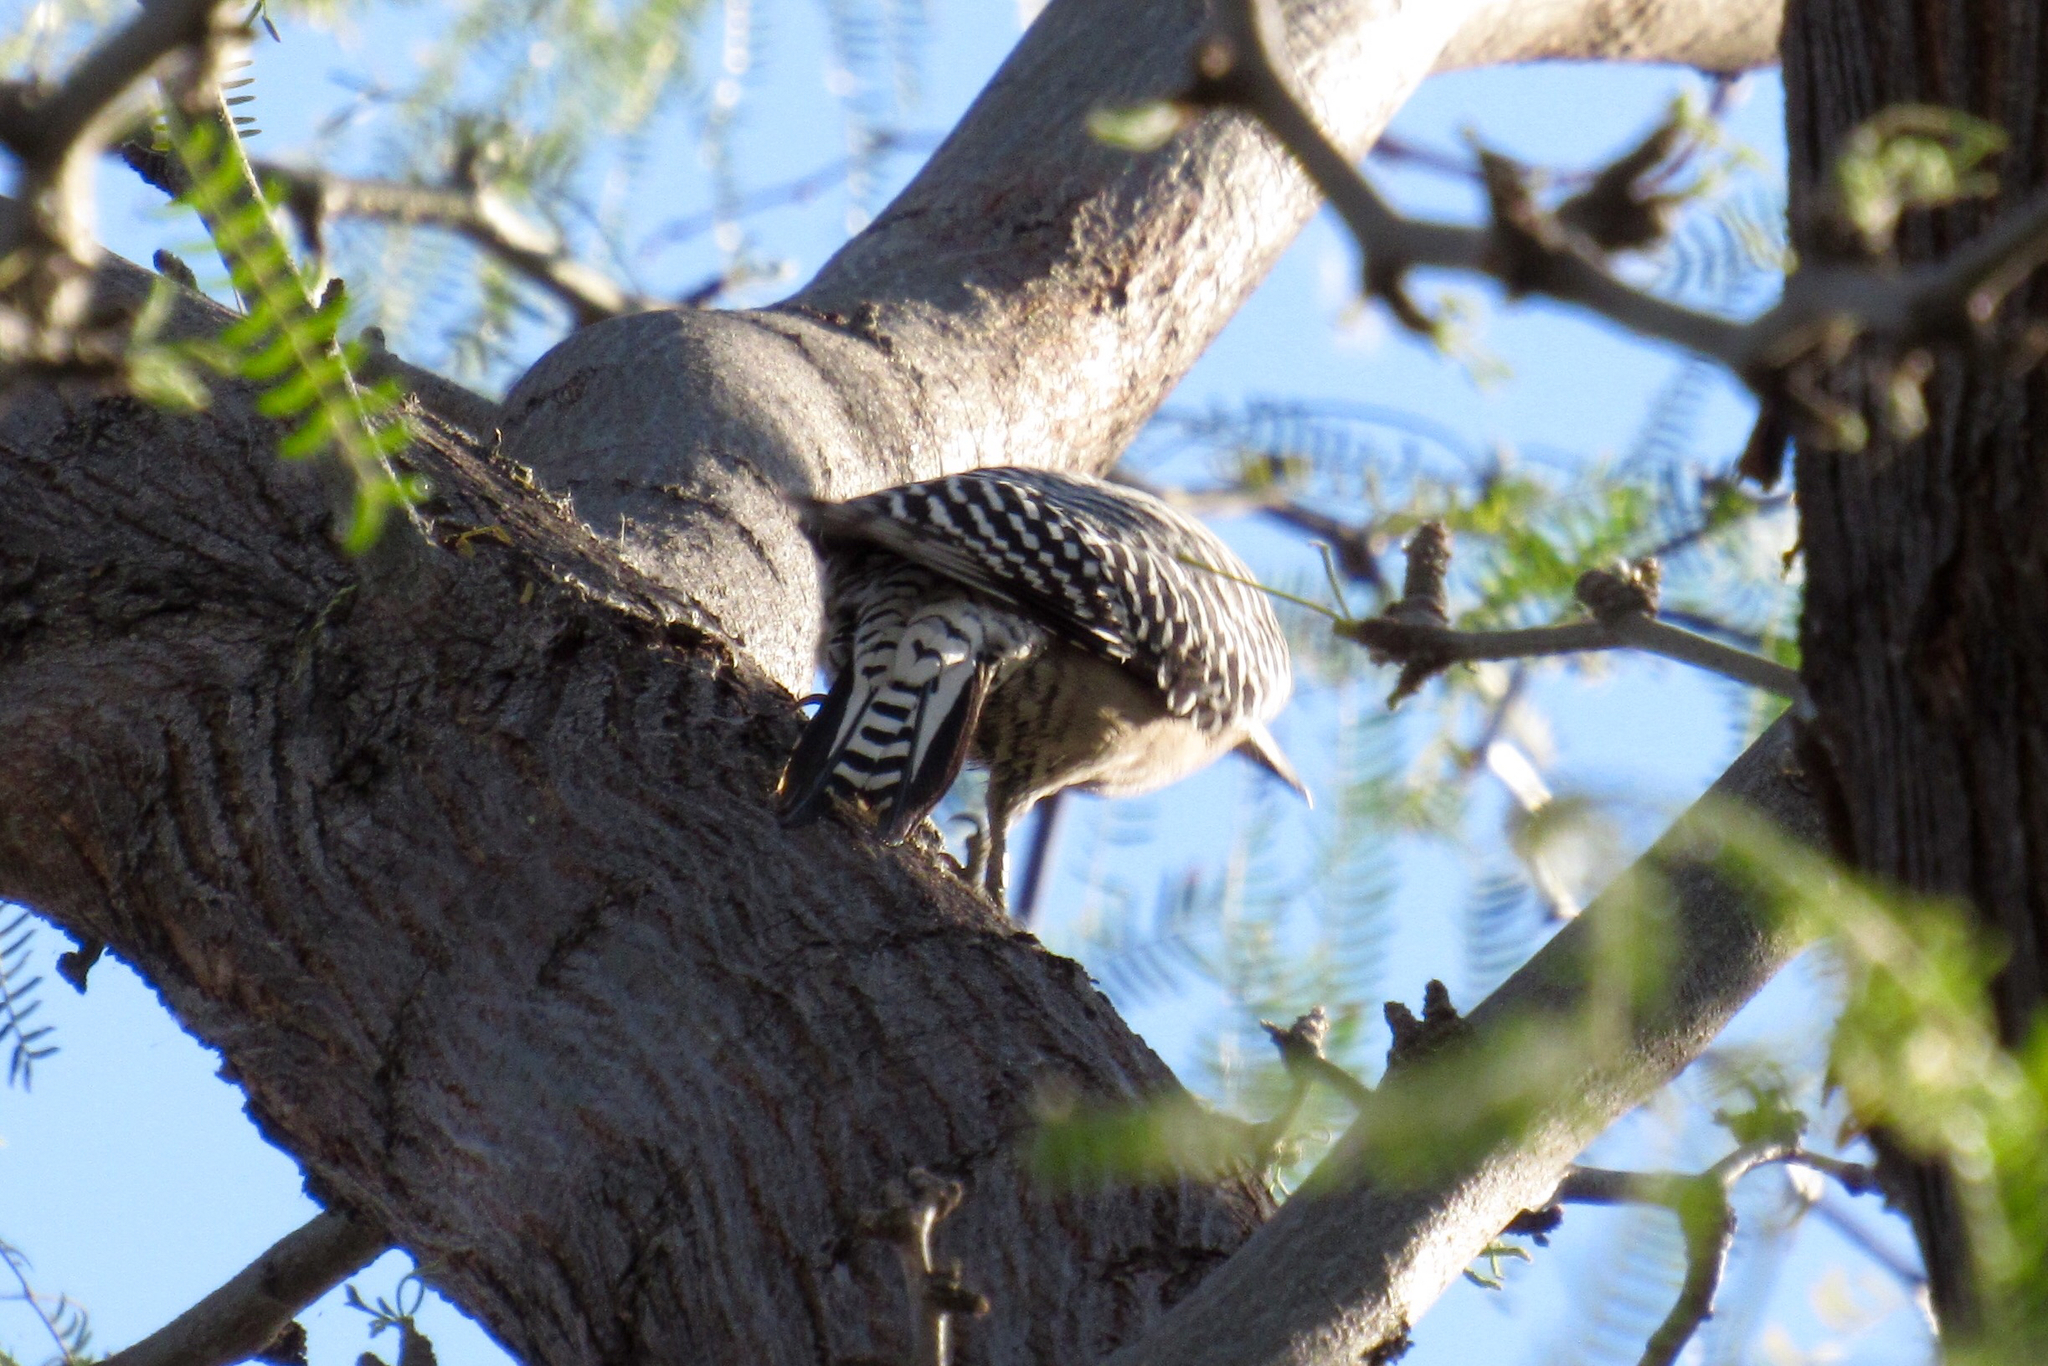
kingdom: Animalia
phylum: Chordata
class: Aves
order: Piciformes
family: Picidae
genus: Melanerpes
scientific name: Melanerpes uropygialis
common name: Gila woodpecker
